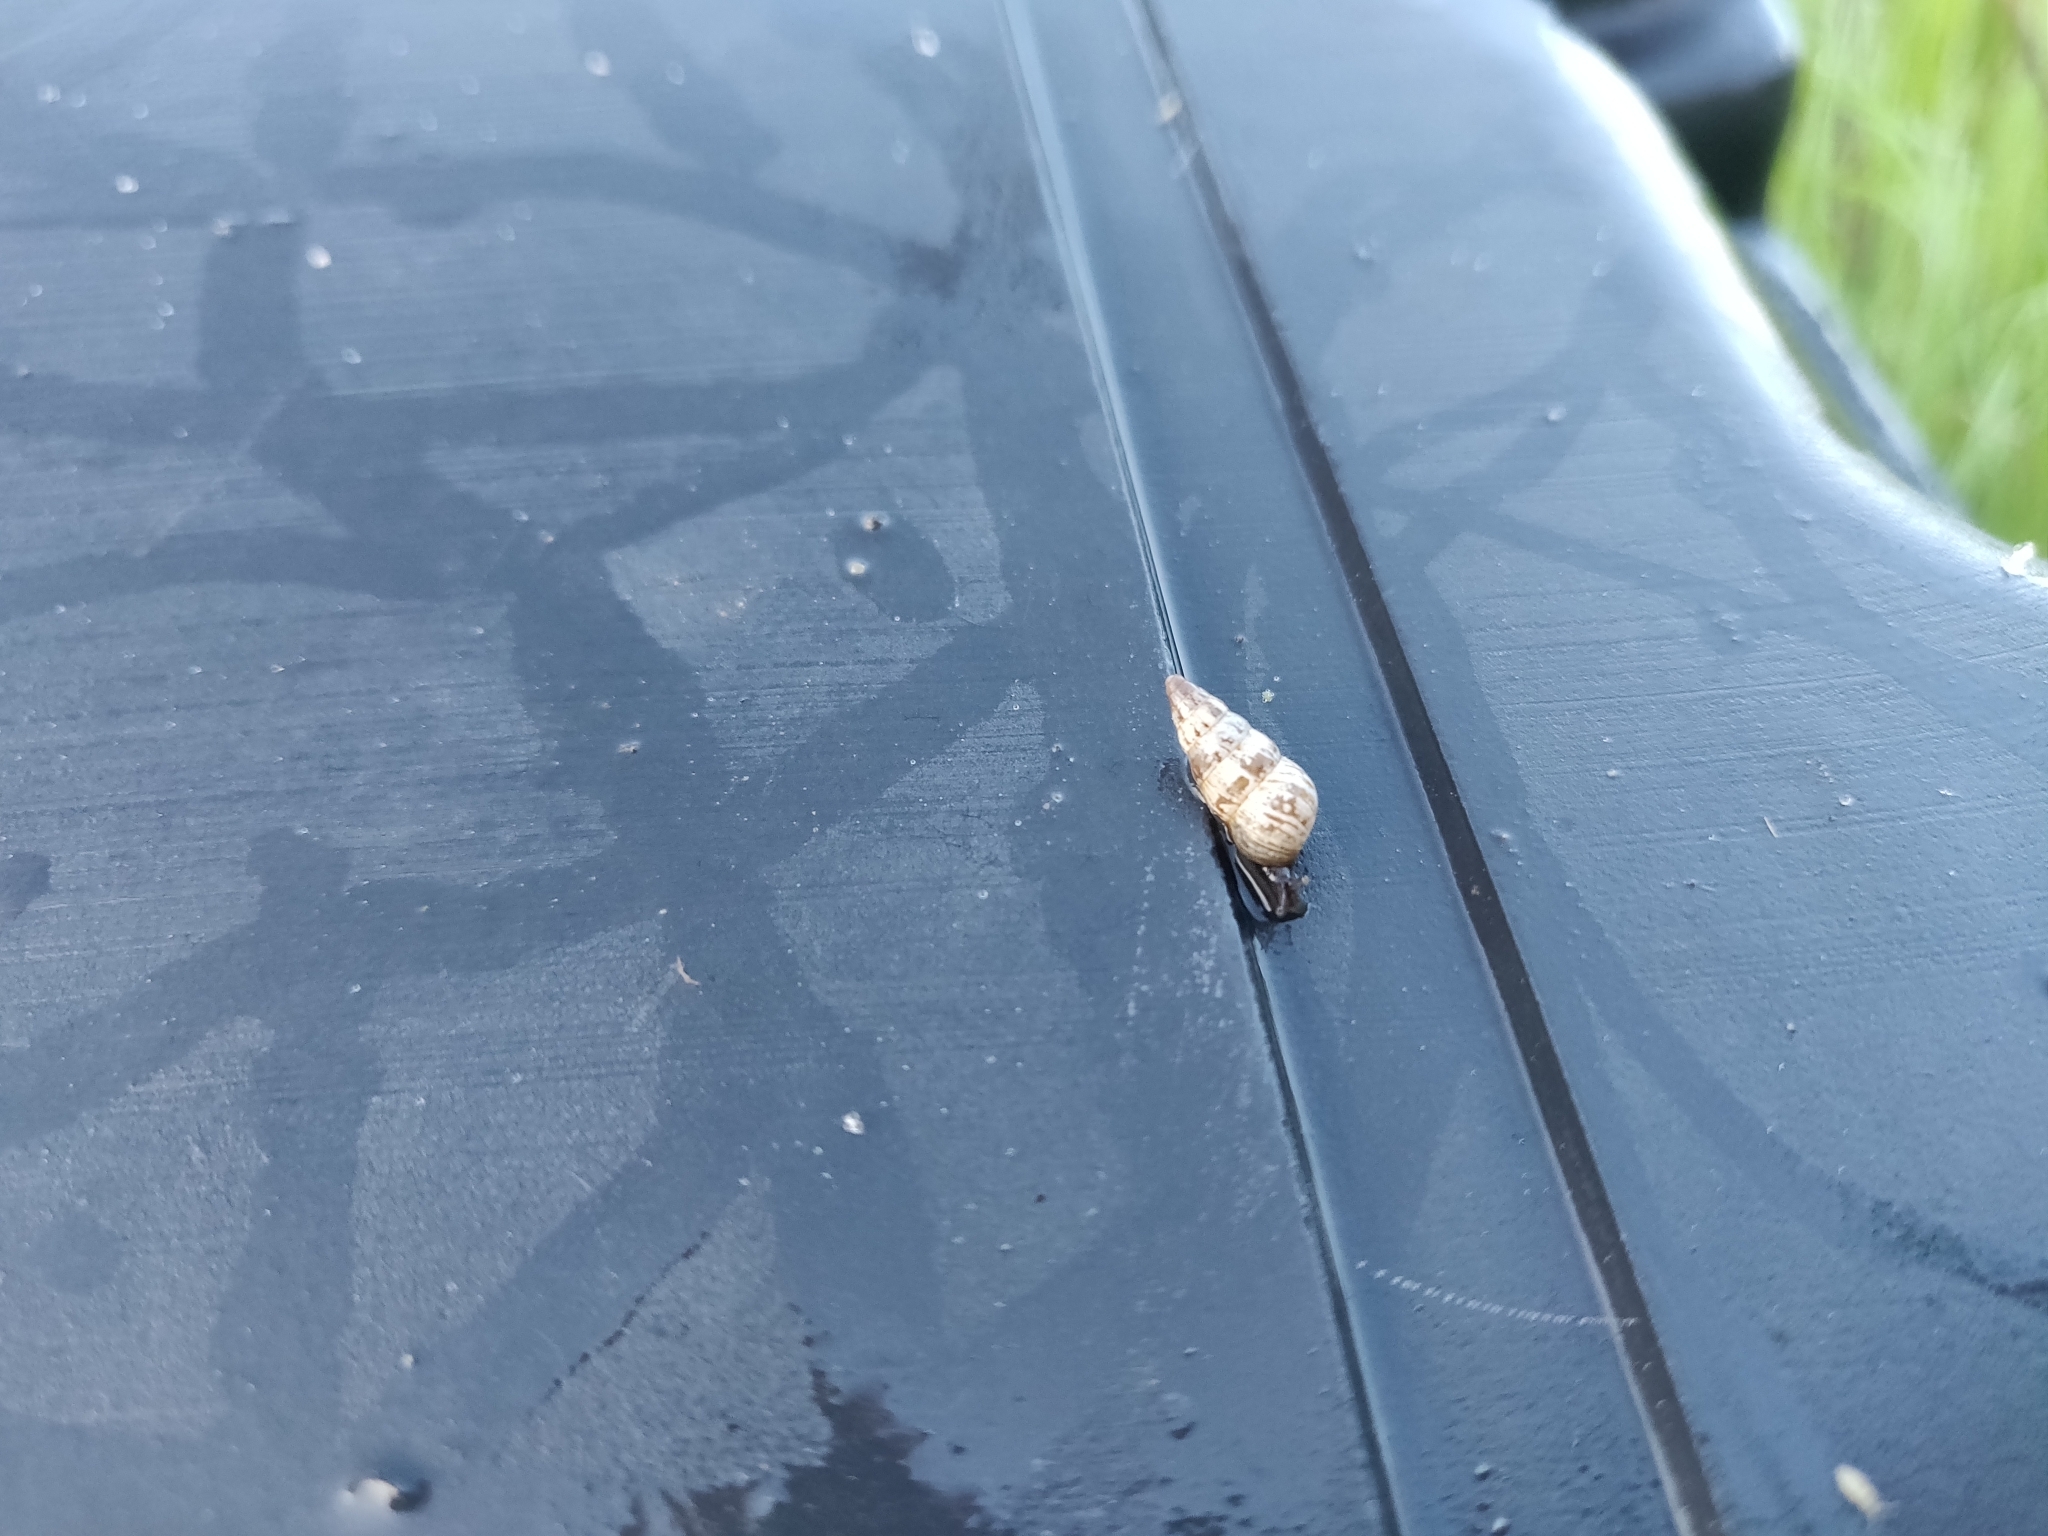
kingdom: Animalia
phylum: Mollusca
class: Gastropoda
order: Stylommatophora
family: Geomitridae
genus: Cochlicella
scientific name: Cochlicella acuta
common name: Pointed snail
